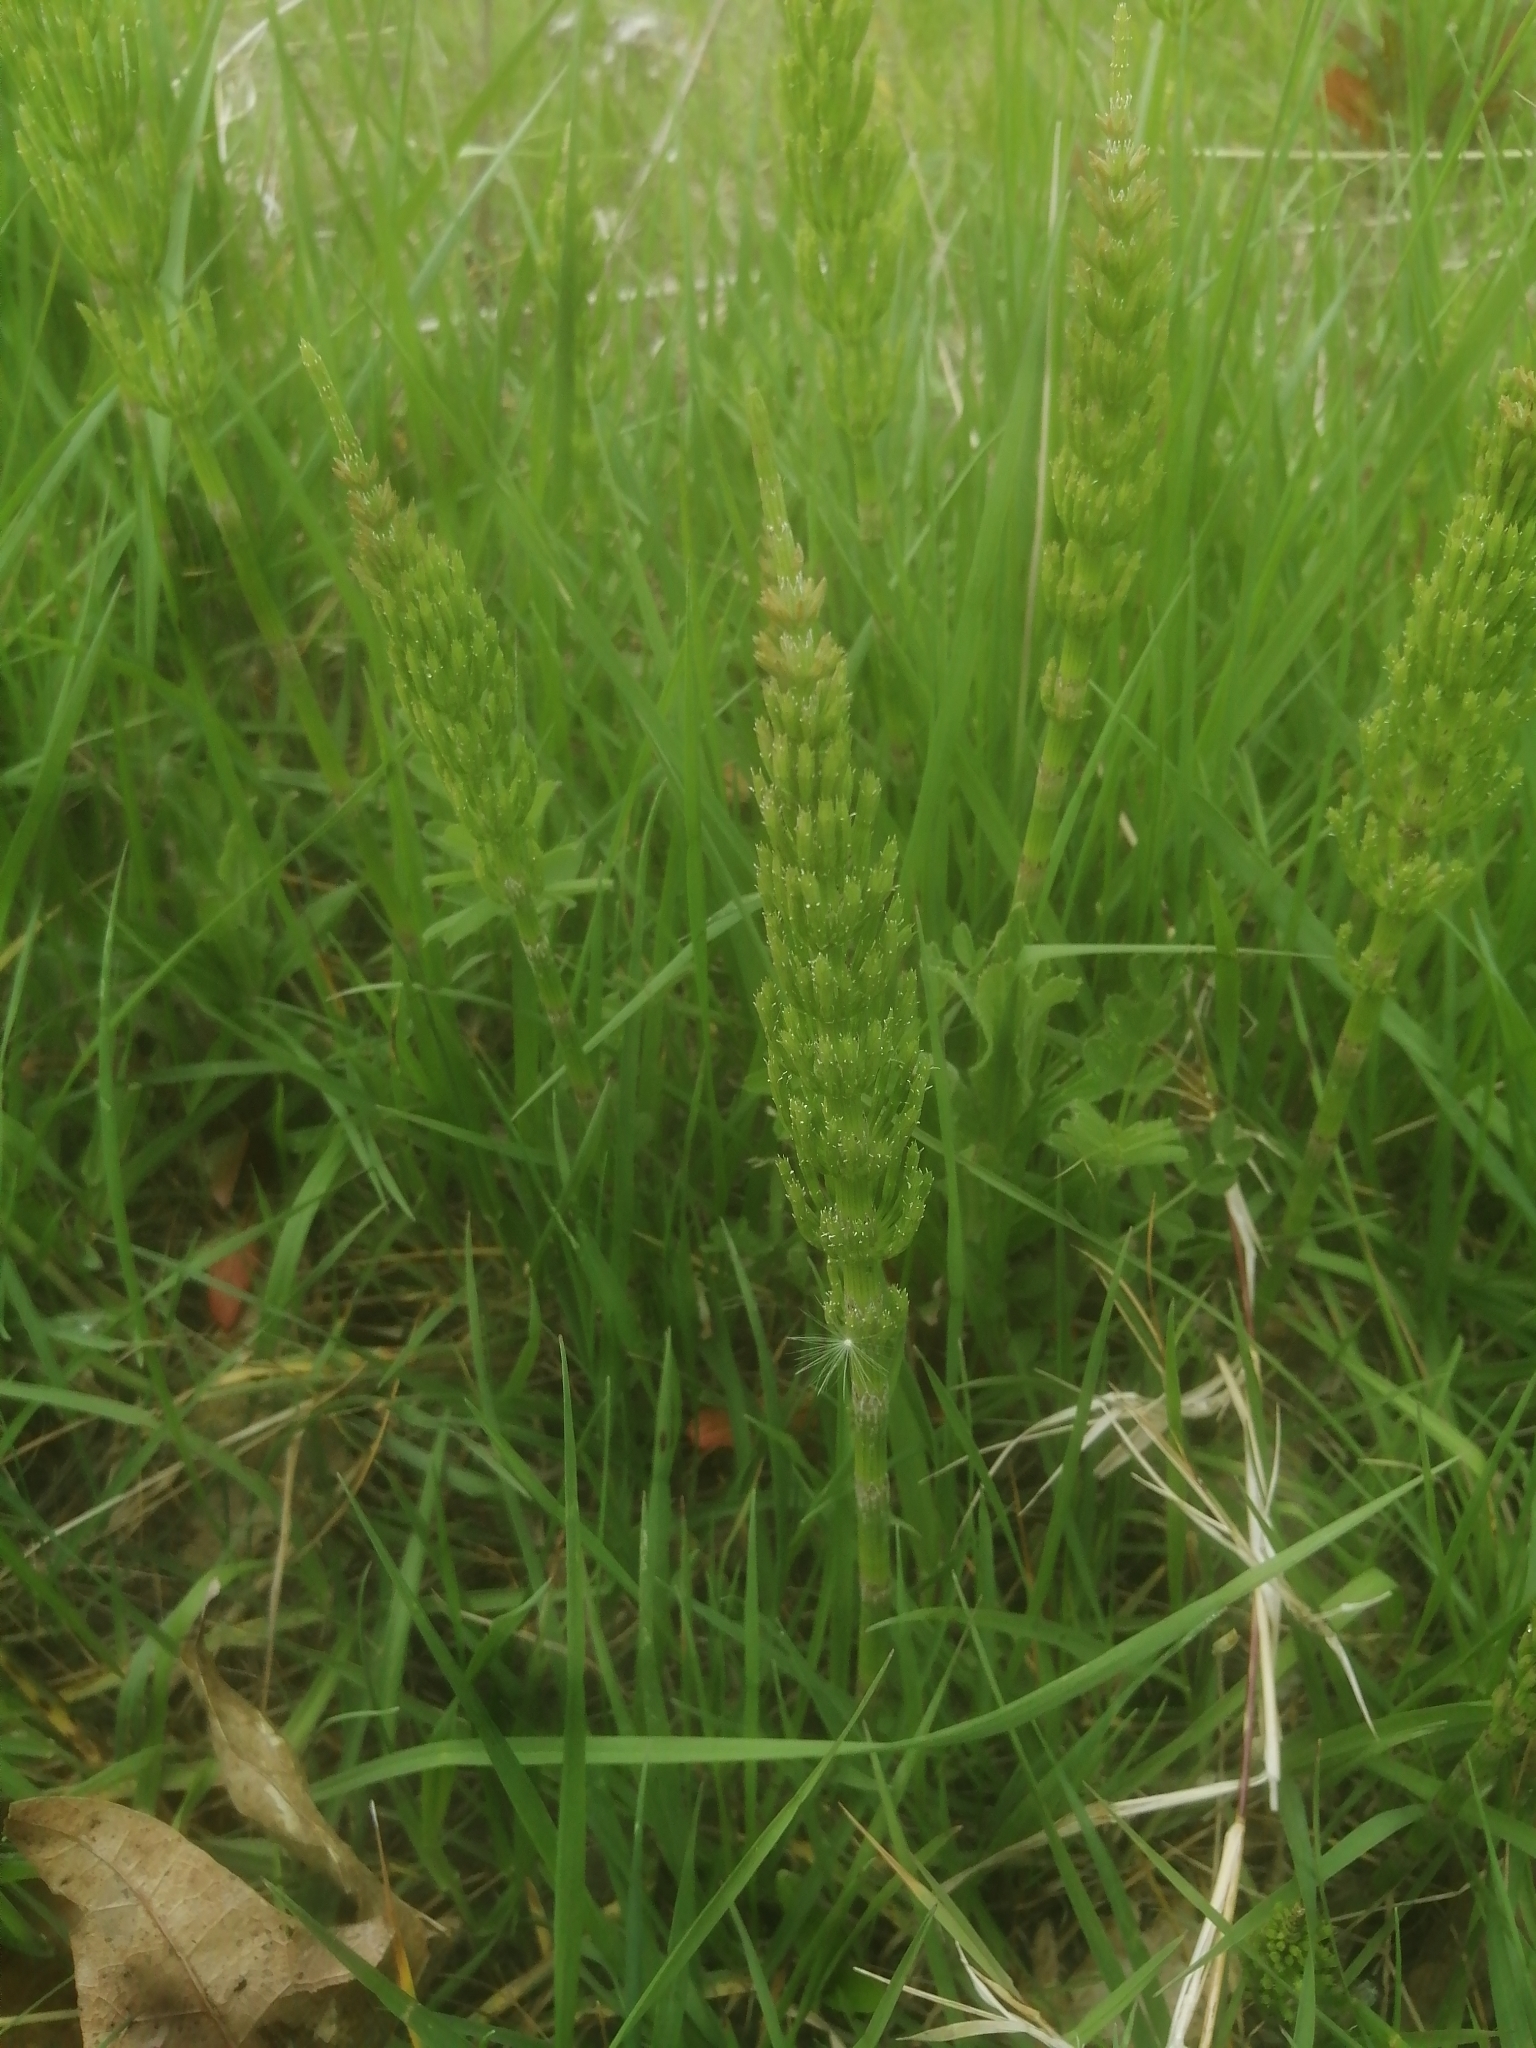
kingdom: Plantae
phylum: Tracheophyta
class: Polypodiopsida
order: Equisetales
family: Equisetaceae
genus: Equisetum
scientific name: Equisetum arvense
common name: Field horsetail
